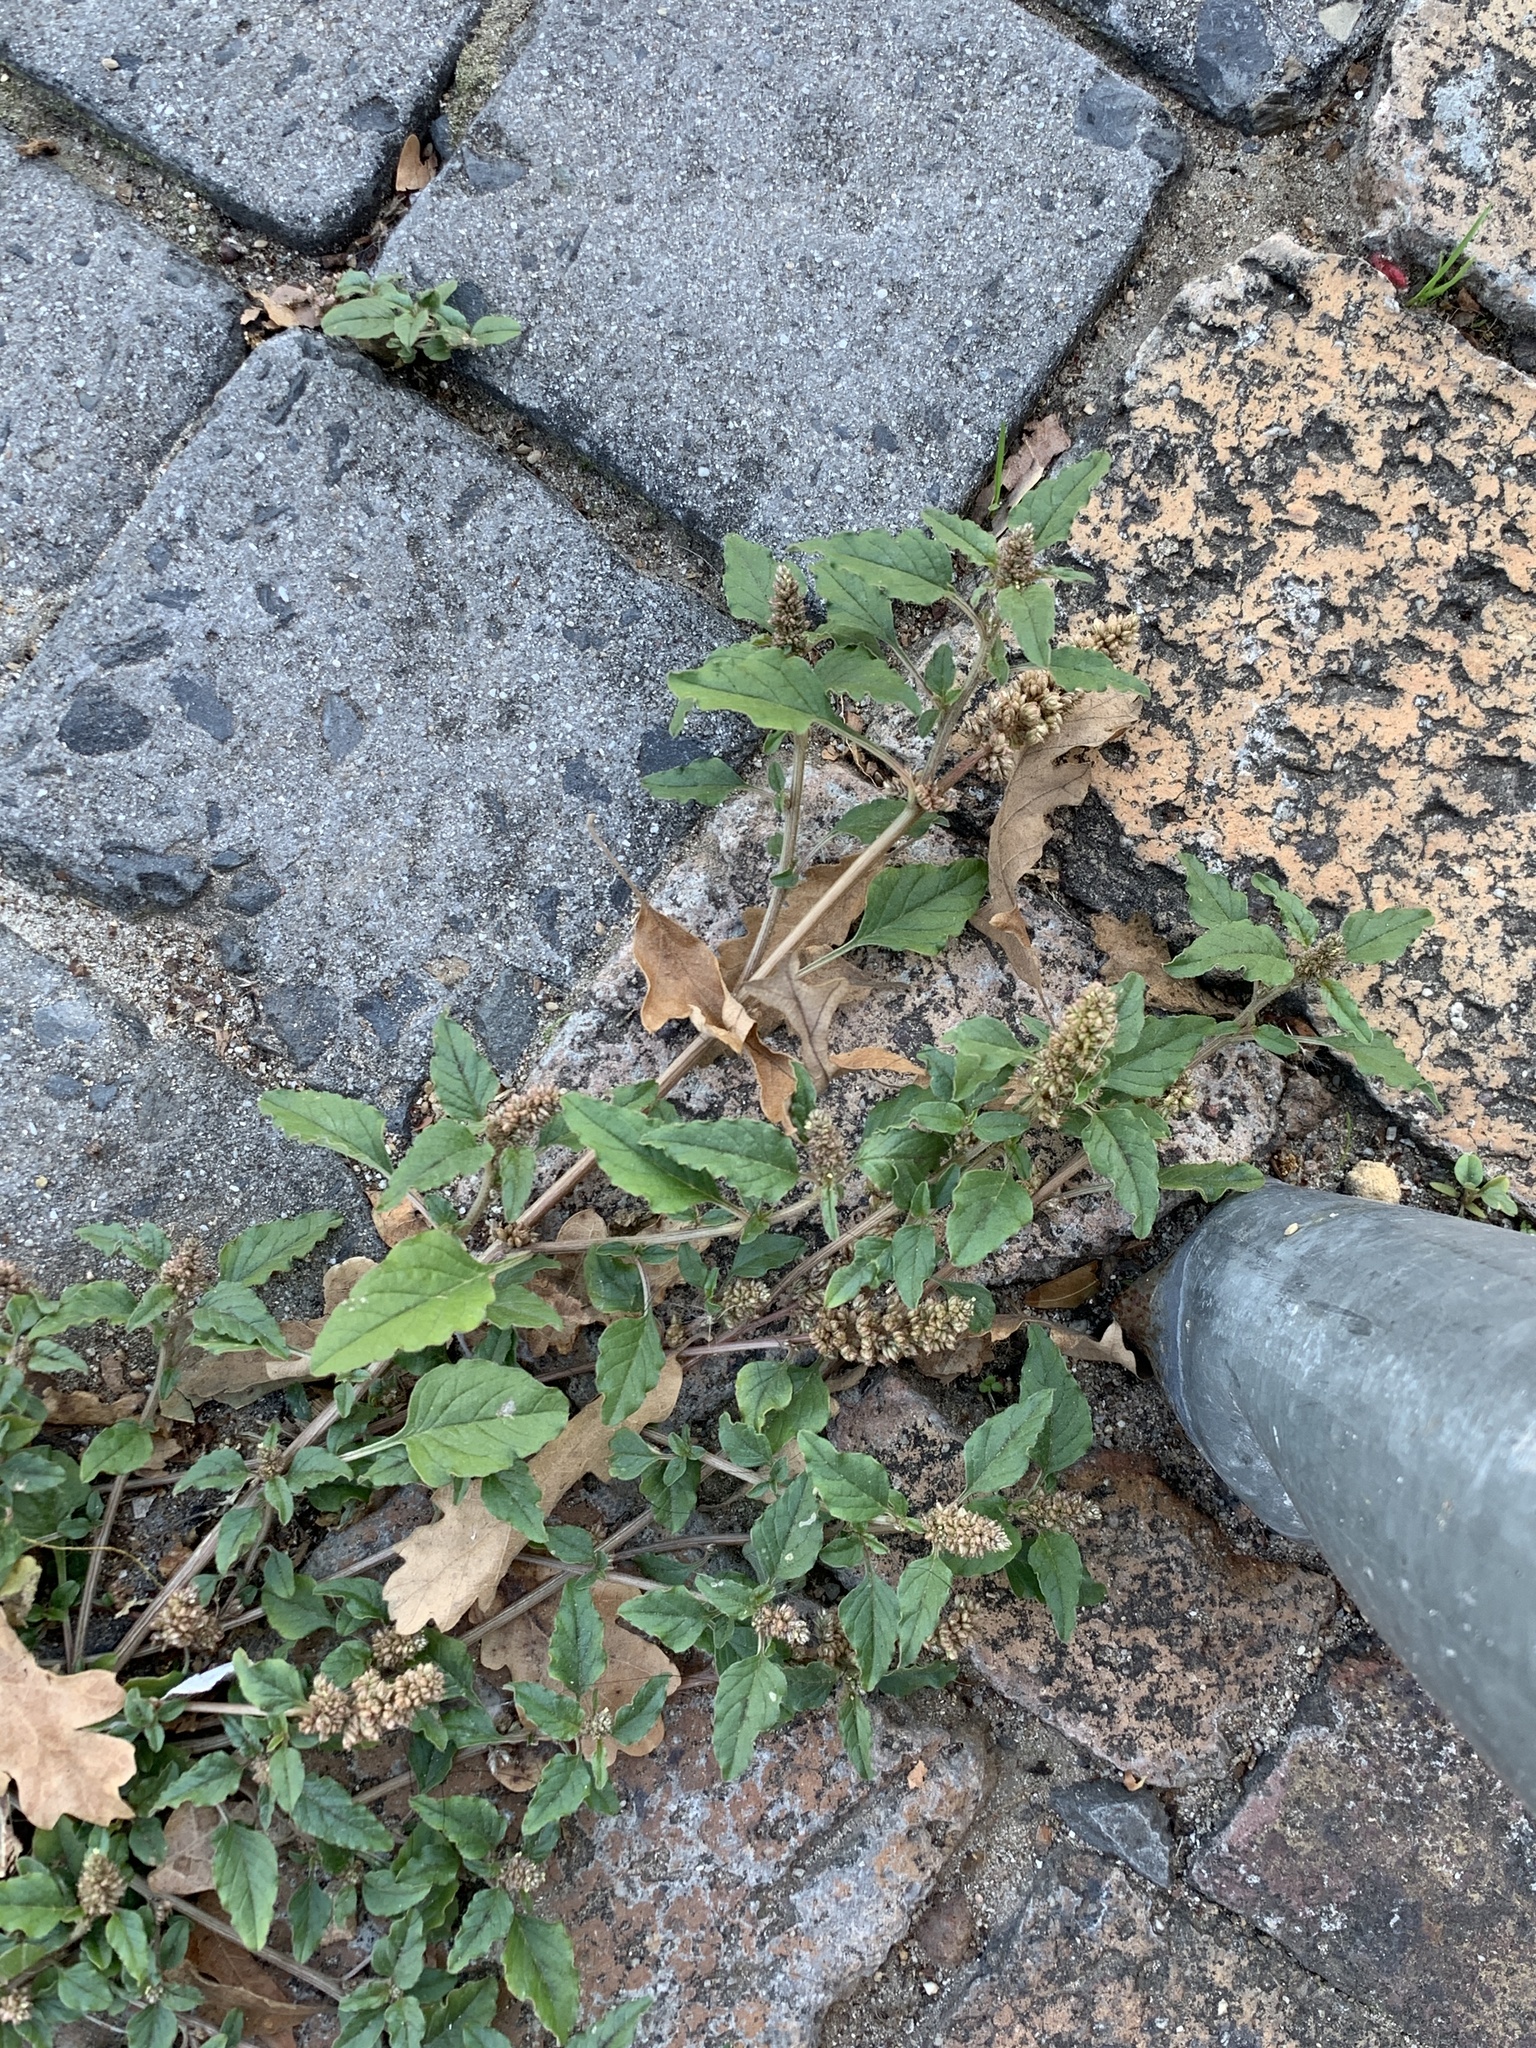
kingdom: Plantae
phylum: Tracheophyta
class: Magnoliopsida
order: Caryophyllales
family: Amaranthaceae
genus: Amaranthus
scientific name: Amaranthus deflexus
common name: Perennial pigweed
